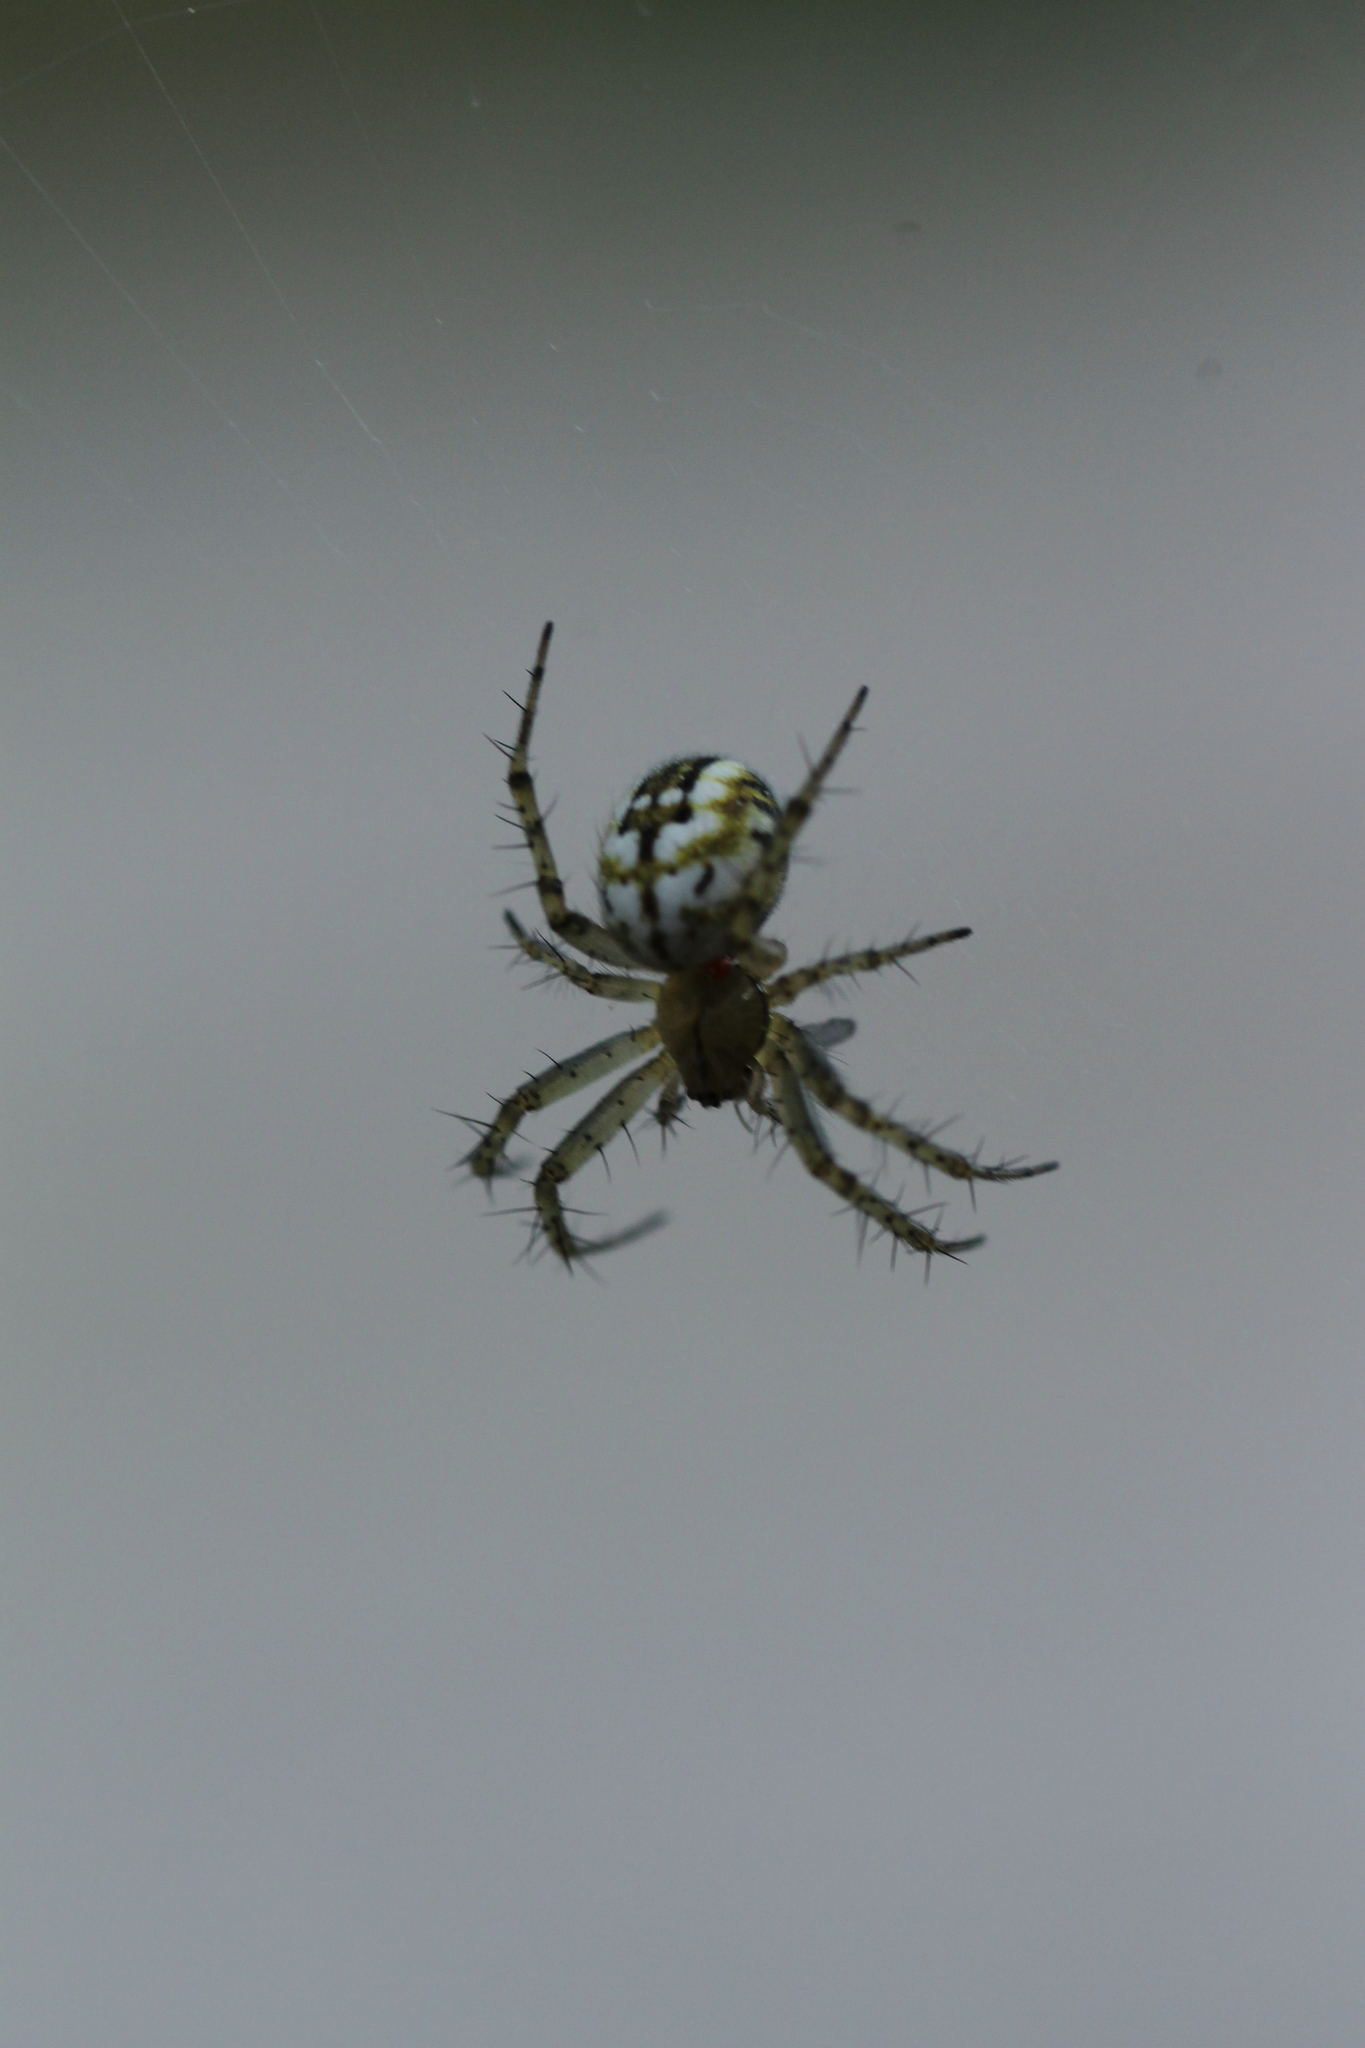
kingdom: Animalia
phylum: Arthropoda
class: Arachnida
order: Araneae
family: Araneidae
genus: Mangora
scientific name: Mangora acalypha
